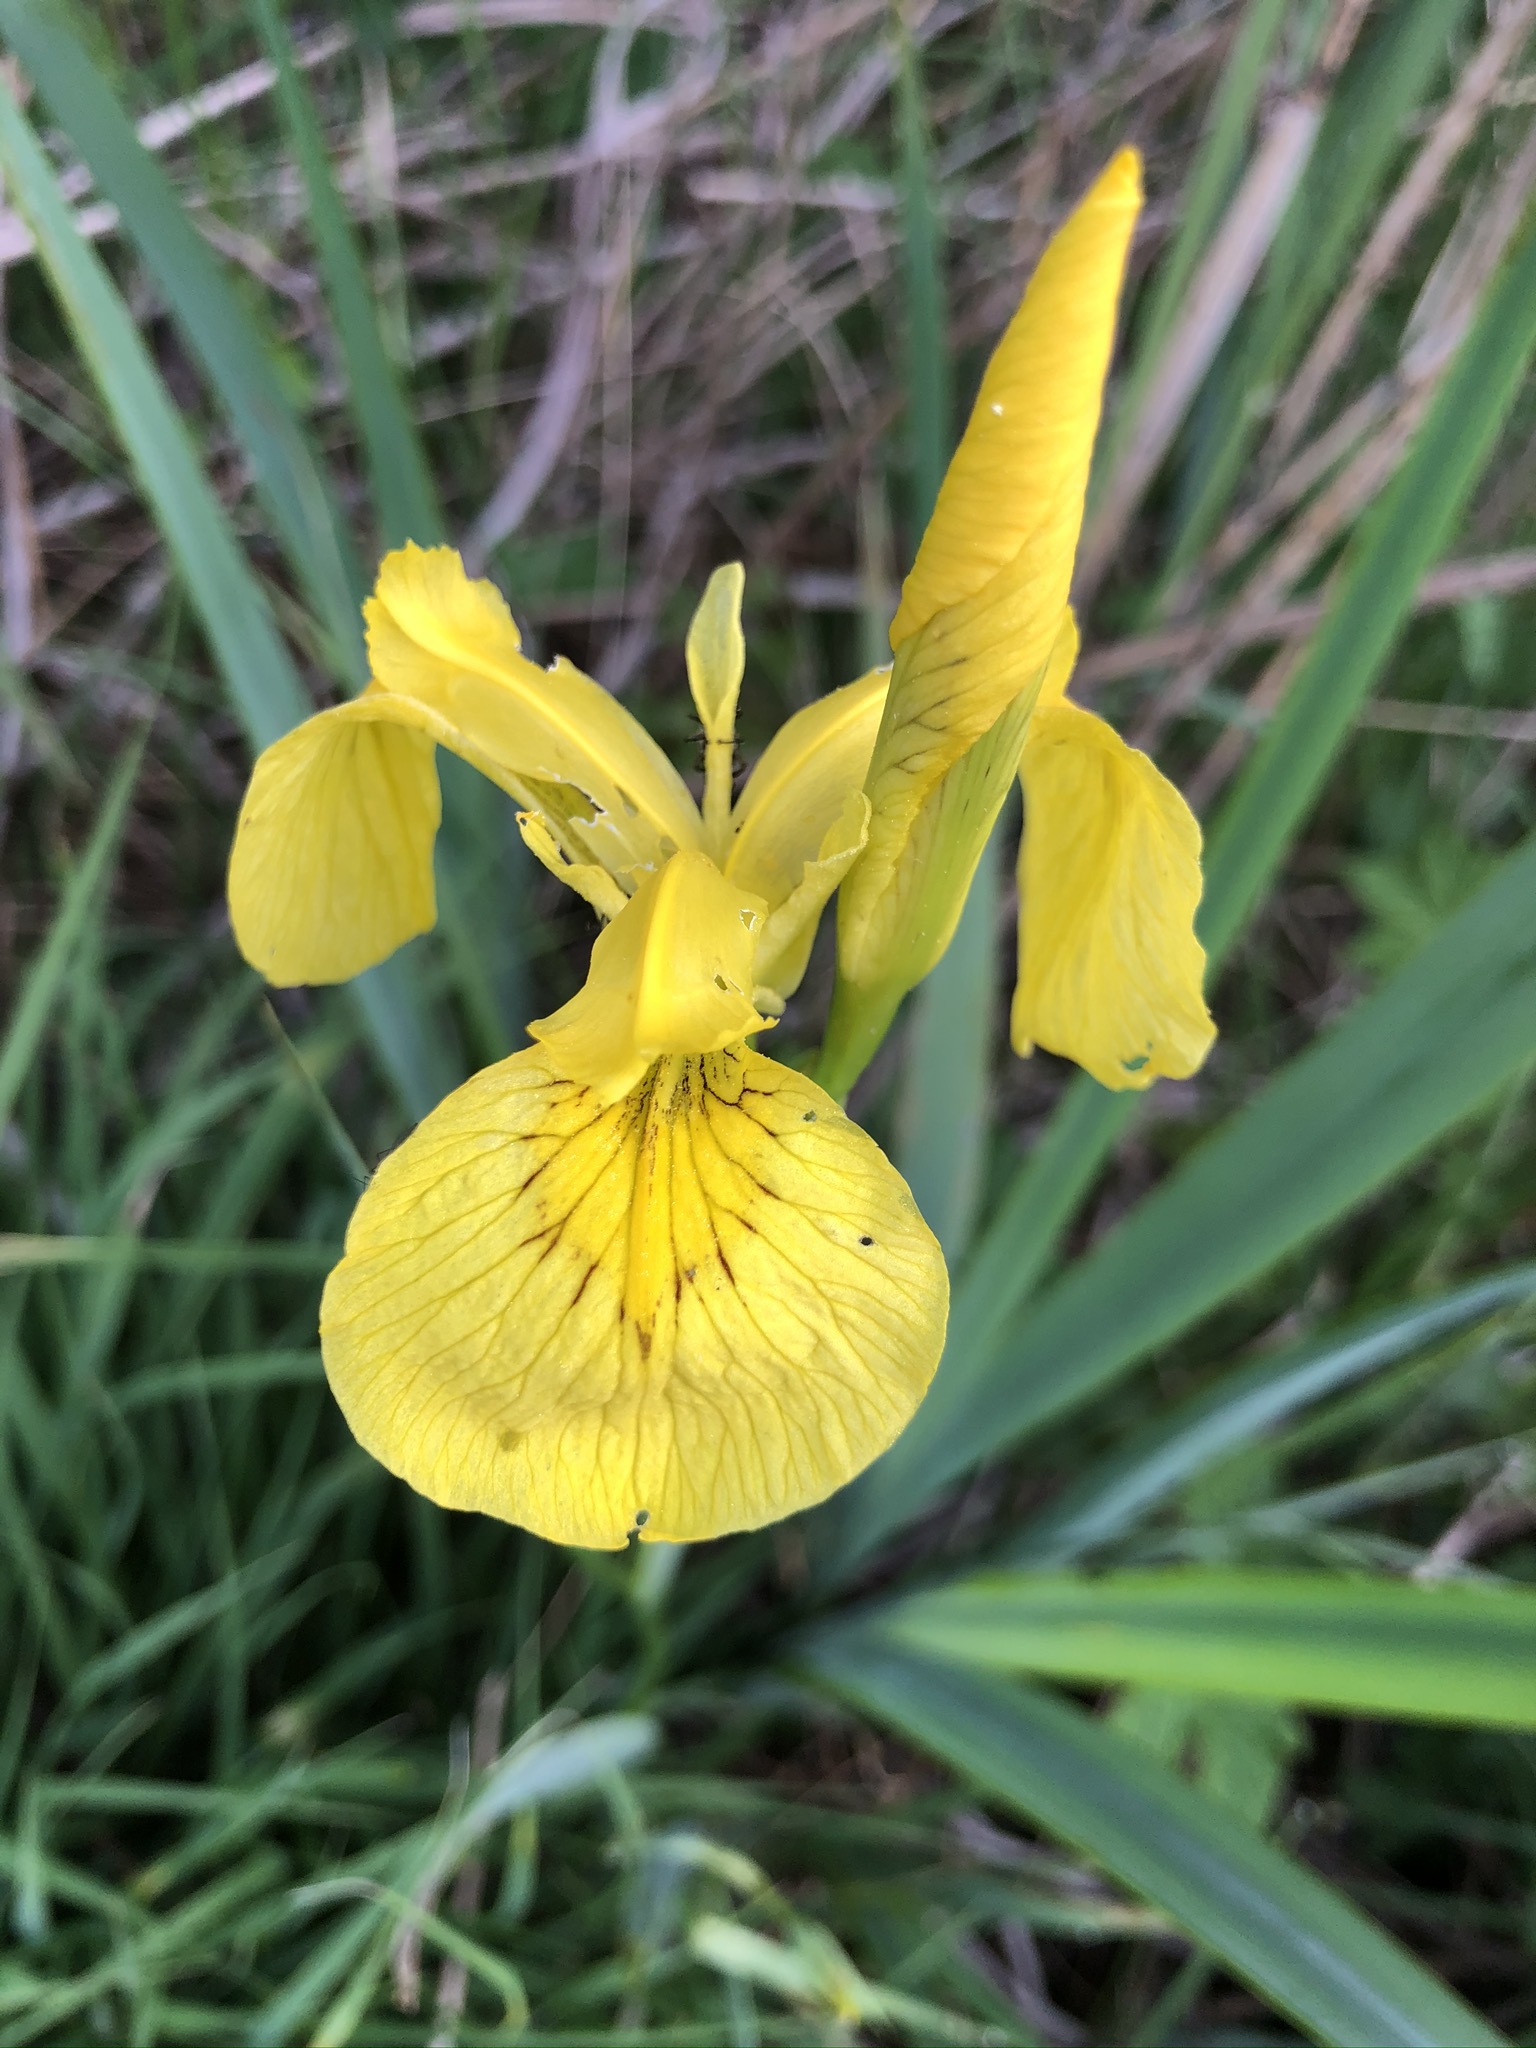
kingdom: Plantae
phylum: Tracheophyta
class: Liliopsida
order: Asparagales
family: Iridaceae
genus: Iris
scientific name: Iris pseudacorus
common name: Yellow flag
